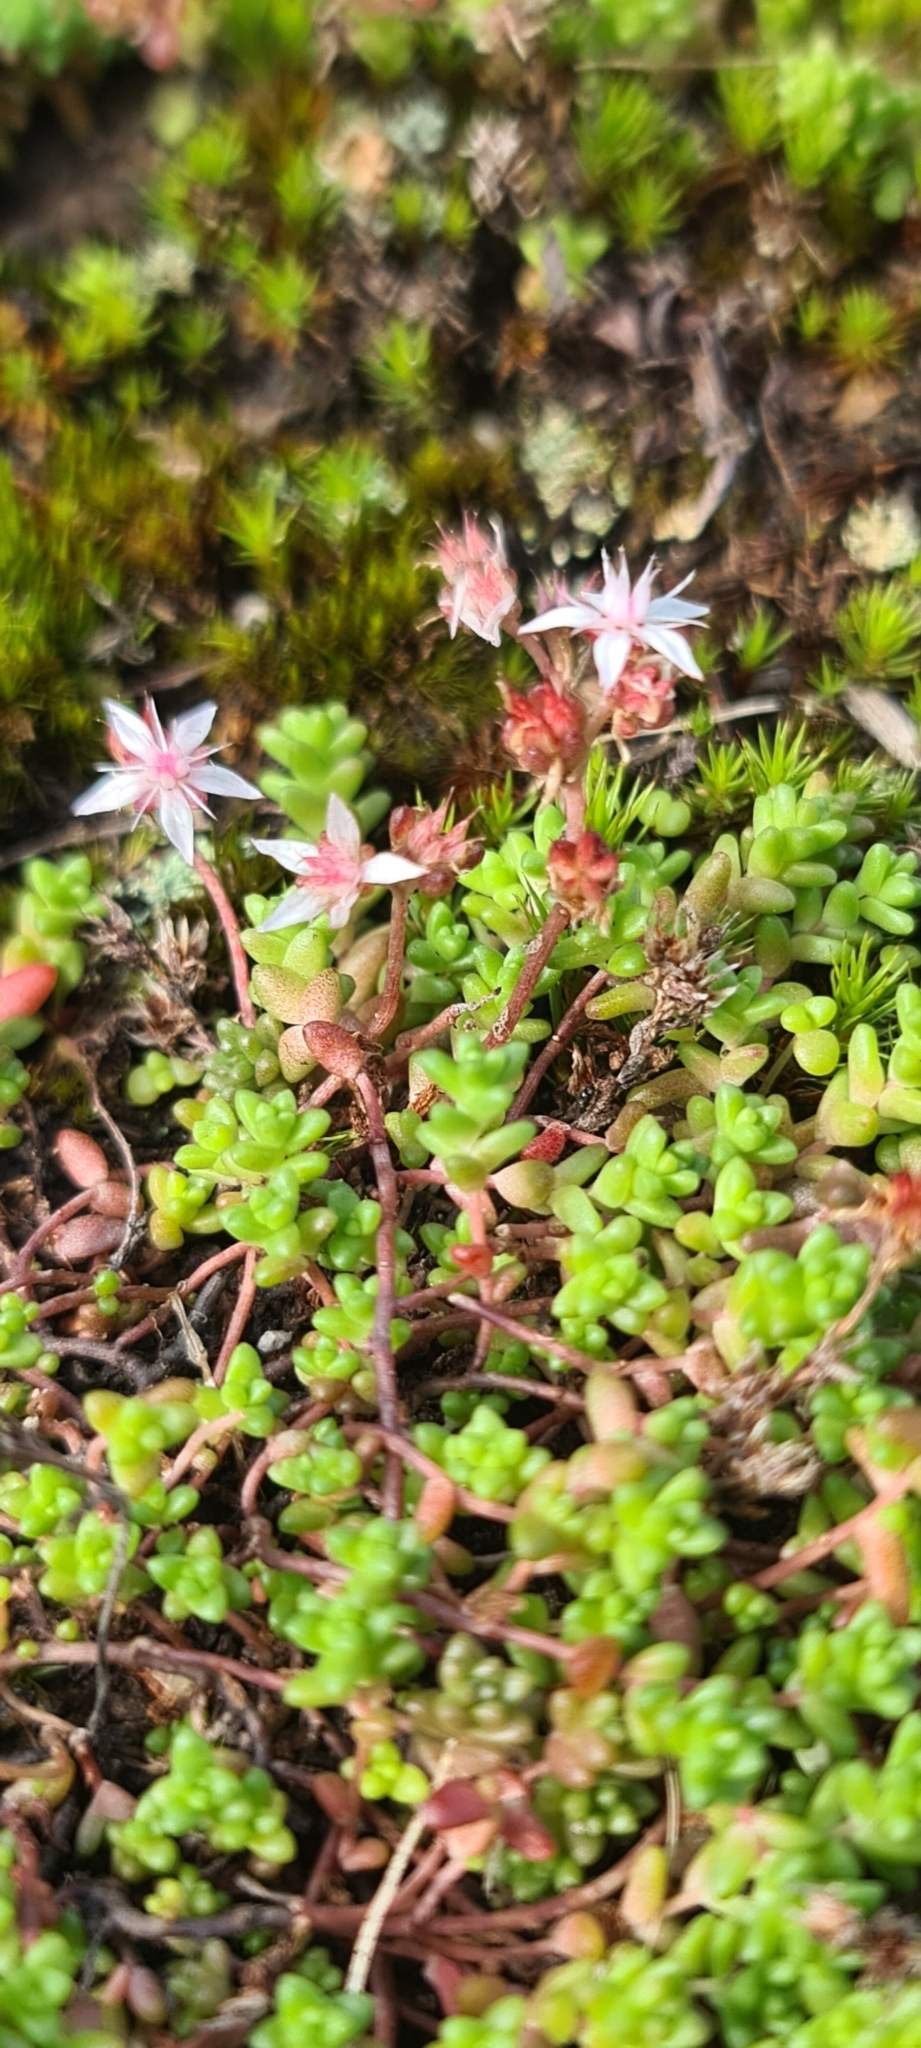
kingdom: Plantae
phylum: Tracheophyta
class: Magnoliopsida
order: Saxifragales
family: Crassulaceae
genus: Sedum
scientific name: Sedum anglicum
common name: English stonecrop
